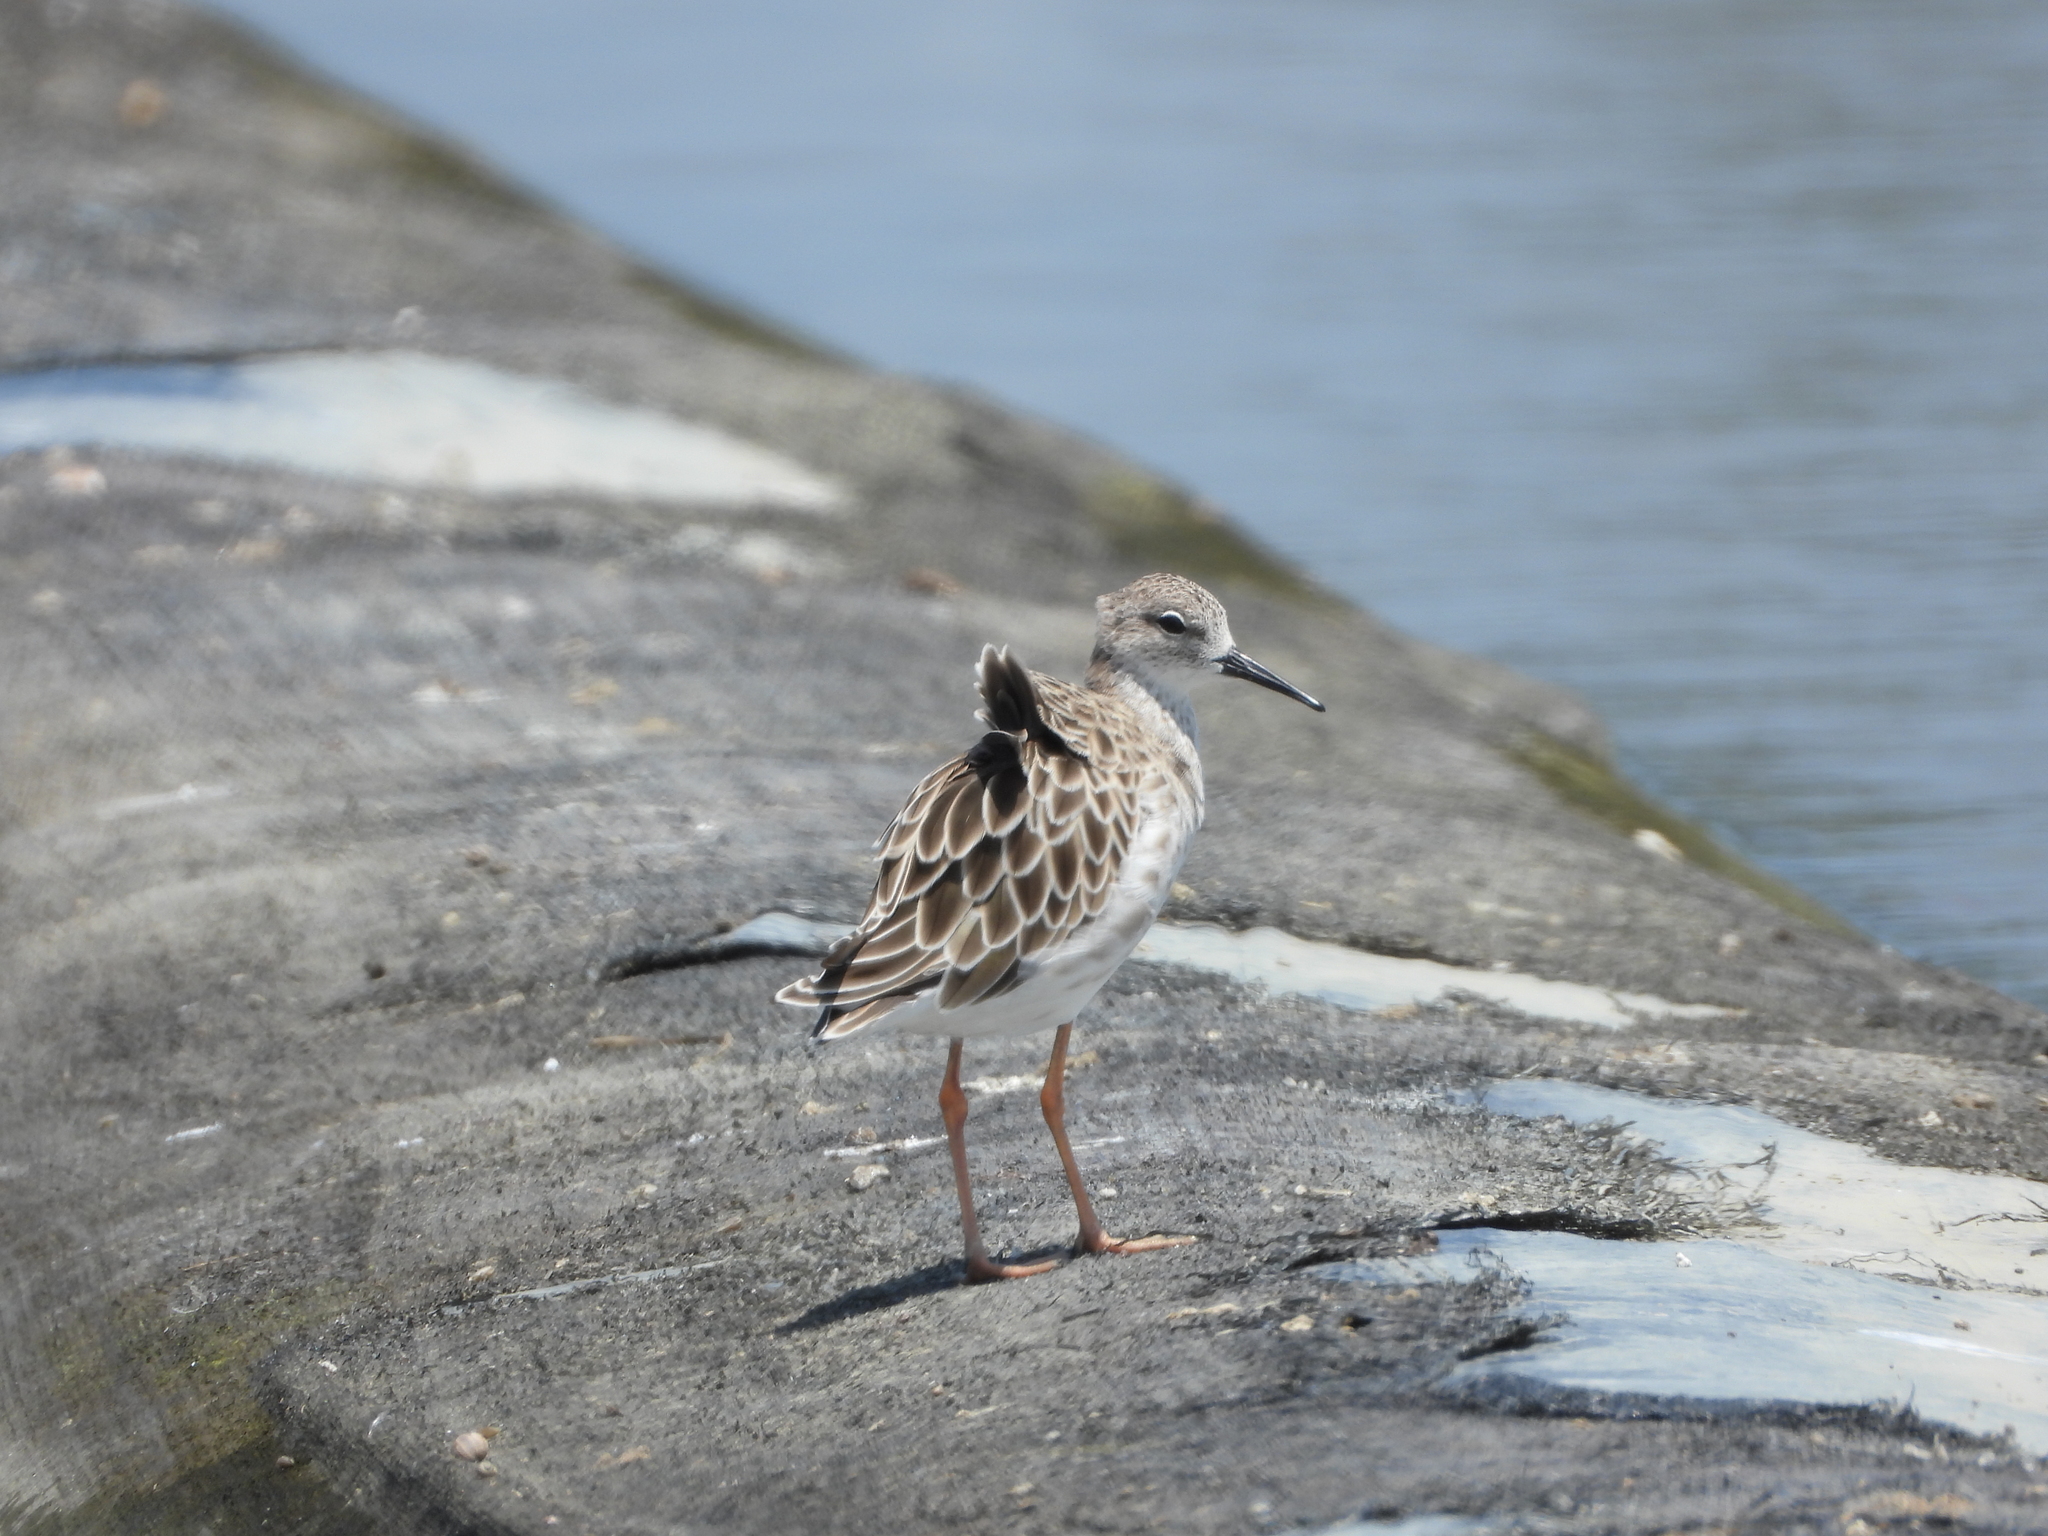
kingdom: Animalia
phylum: Chordata
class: Aves
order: Charadriiformes
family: Scolopacidae
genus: Calidris
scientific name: Calidris pugnax
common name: Ruff
